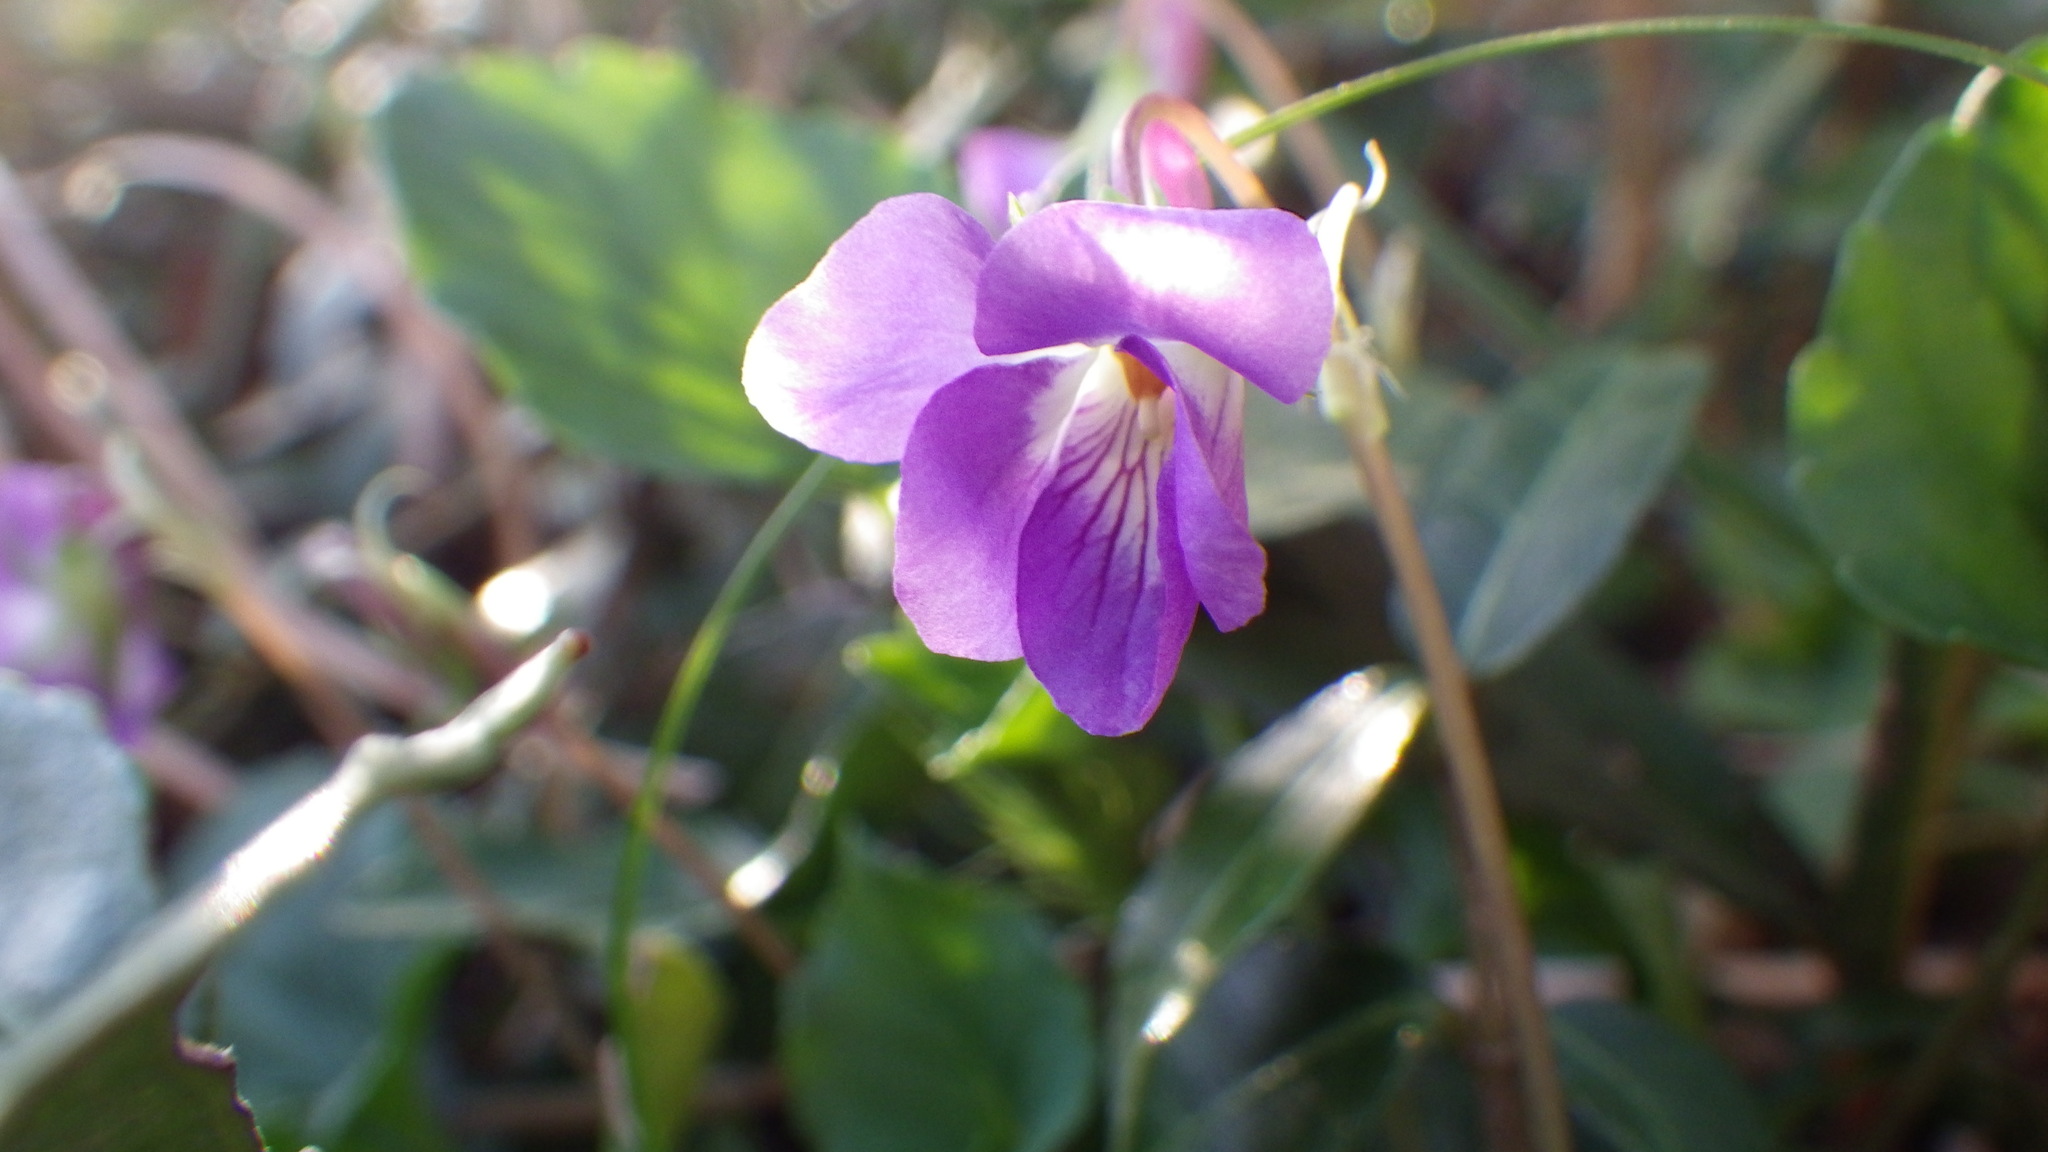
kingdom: Plantae
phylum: Tracheophyta
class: Magnoliopsida
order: Malpighiales
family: Violaceae
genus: Viola
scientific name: Viola obtusa
